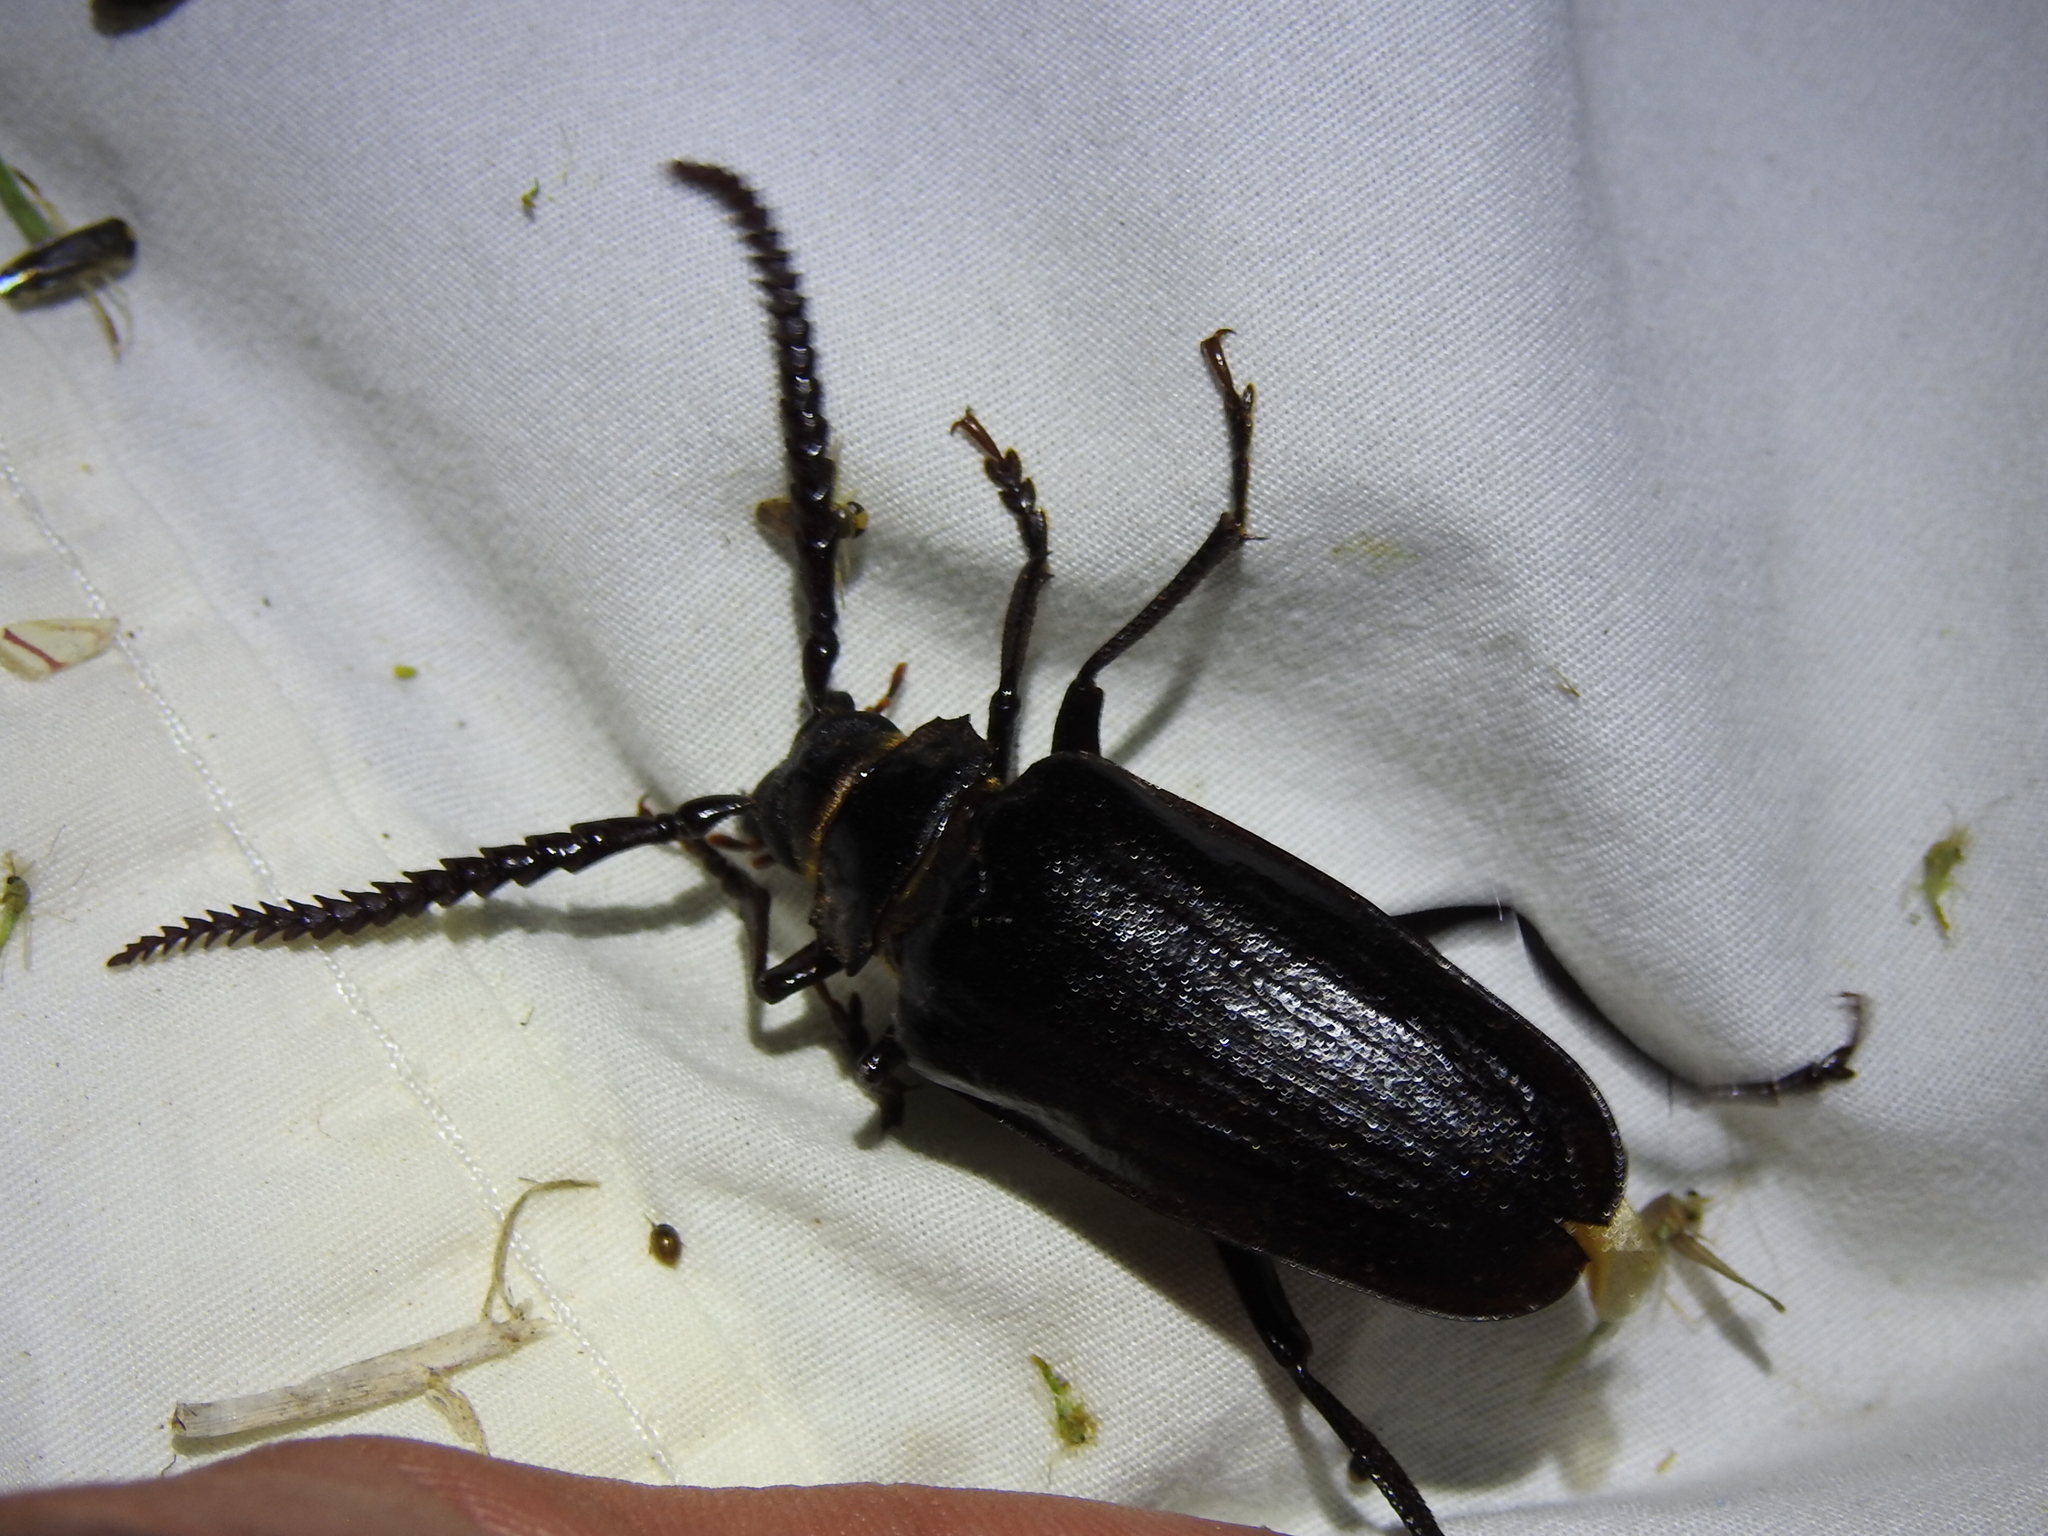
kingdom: Animalia
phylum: Arthropoda
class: Insecta
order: Coleoptera
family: Cerambycidae
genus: Prionus
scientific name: Prionus imbricornis
